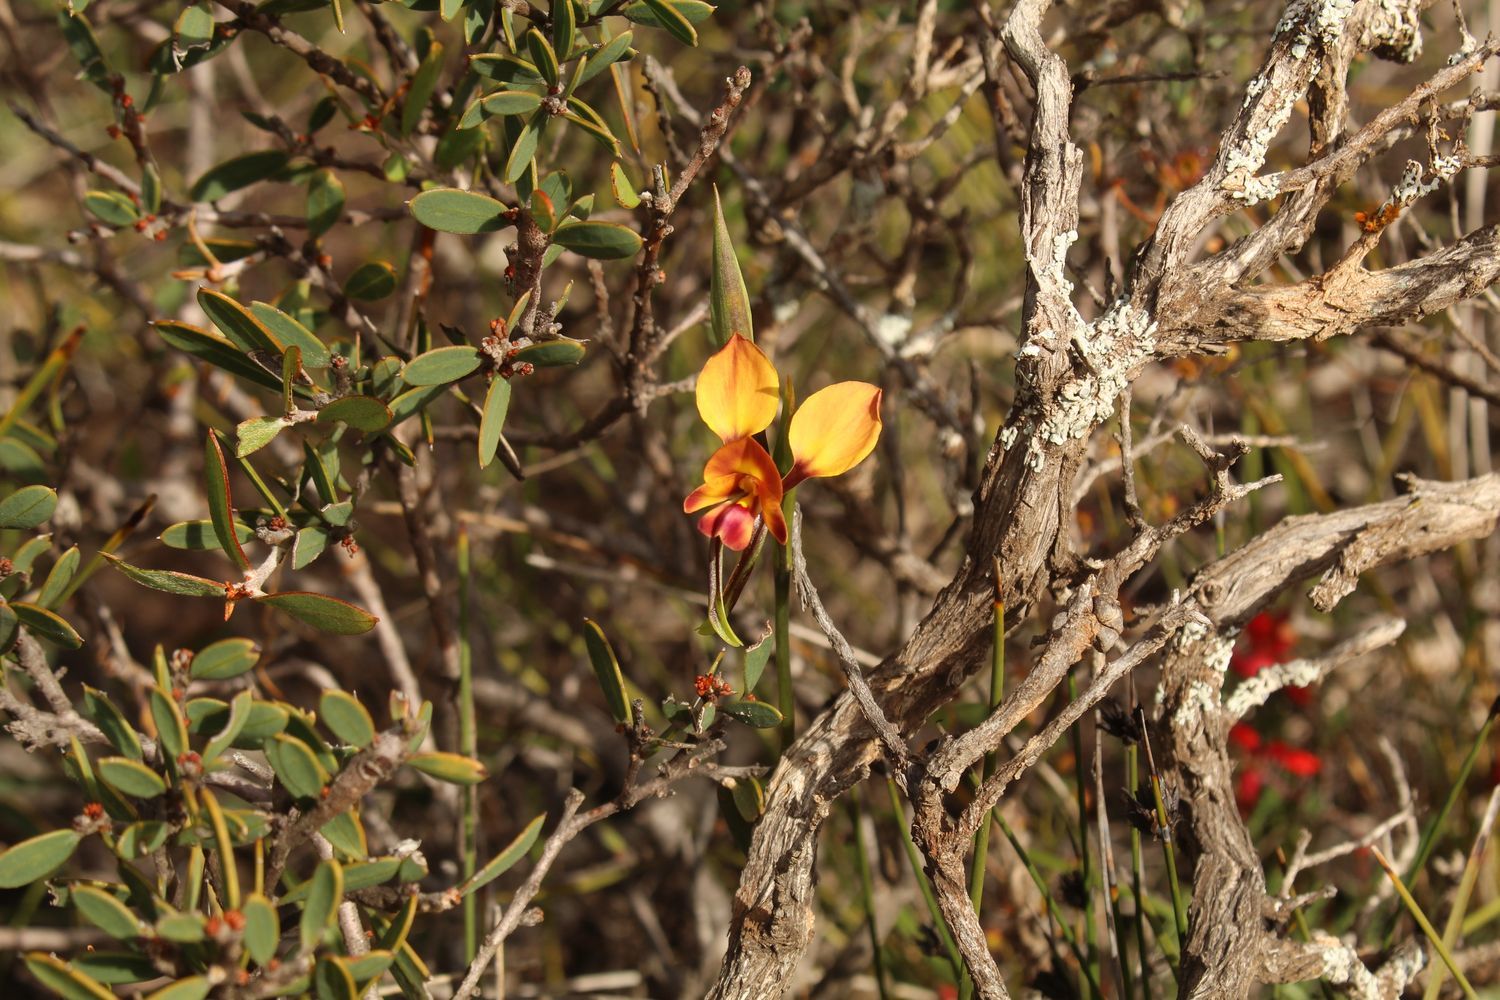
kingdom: Plantae
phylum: Tracheophyta
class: Liliopsida
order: Asparagales
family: Orchidaceae
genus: Diuris
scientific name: Diuris littoralis
